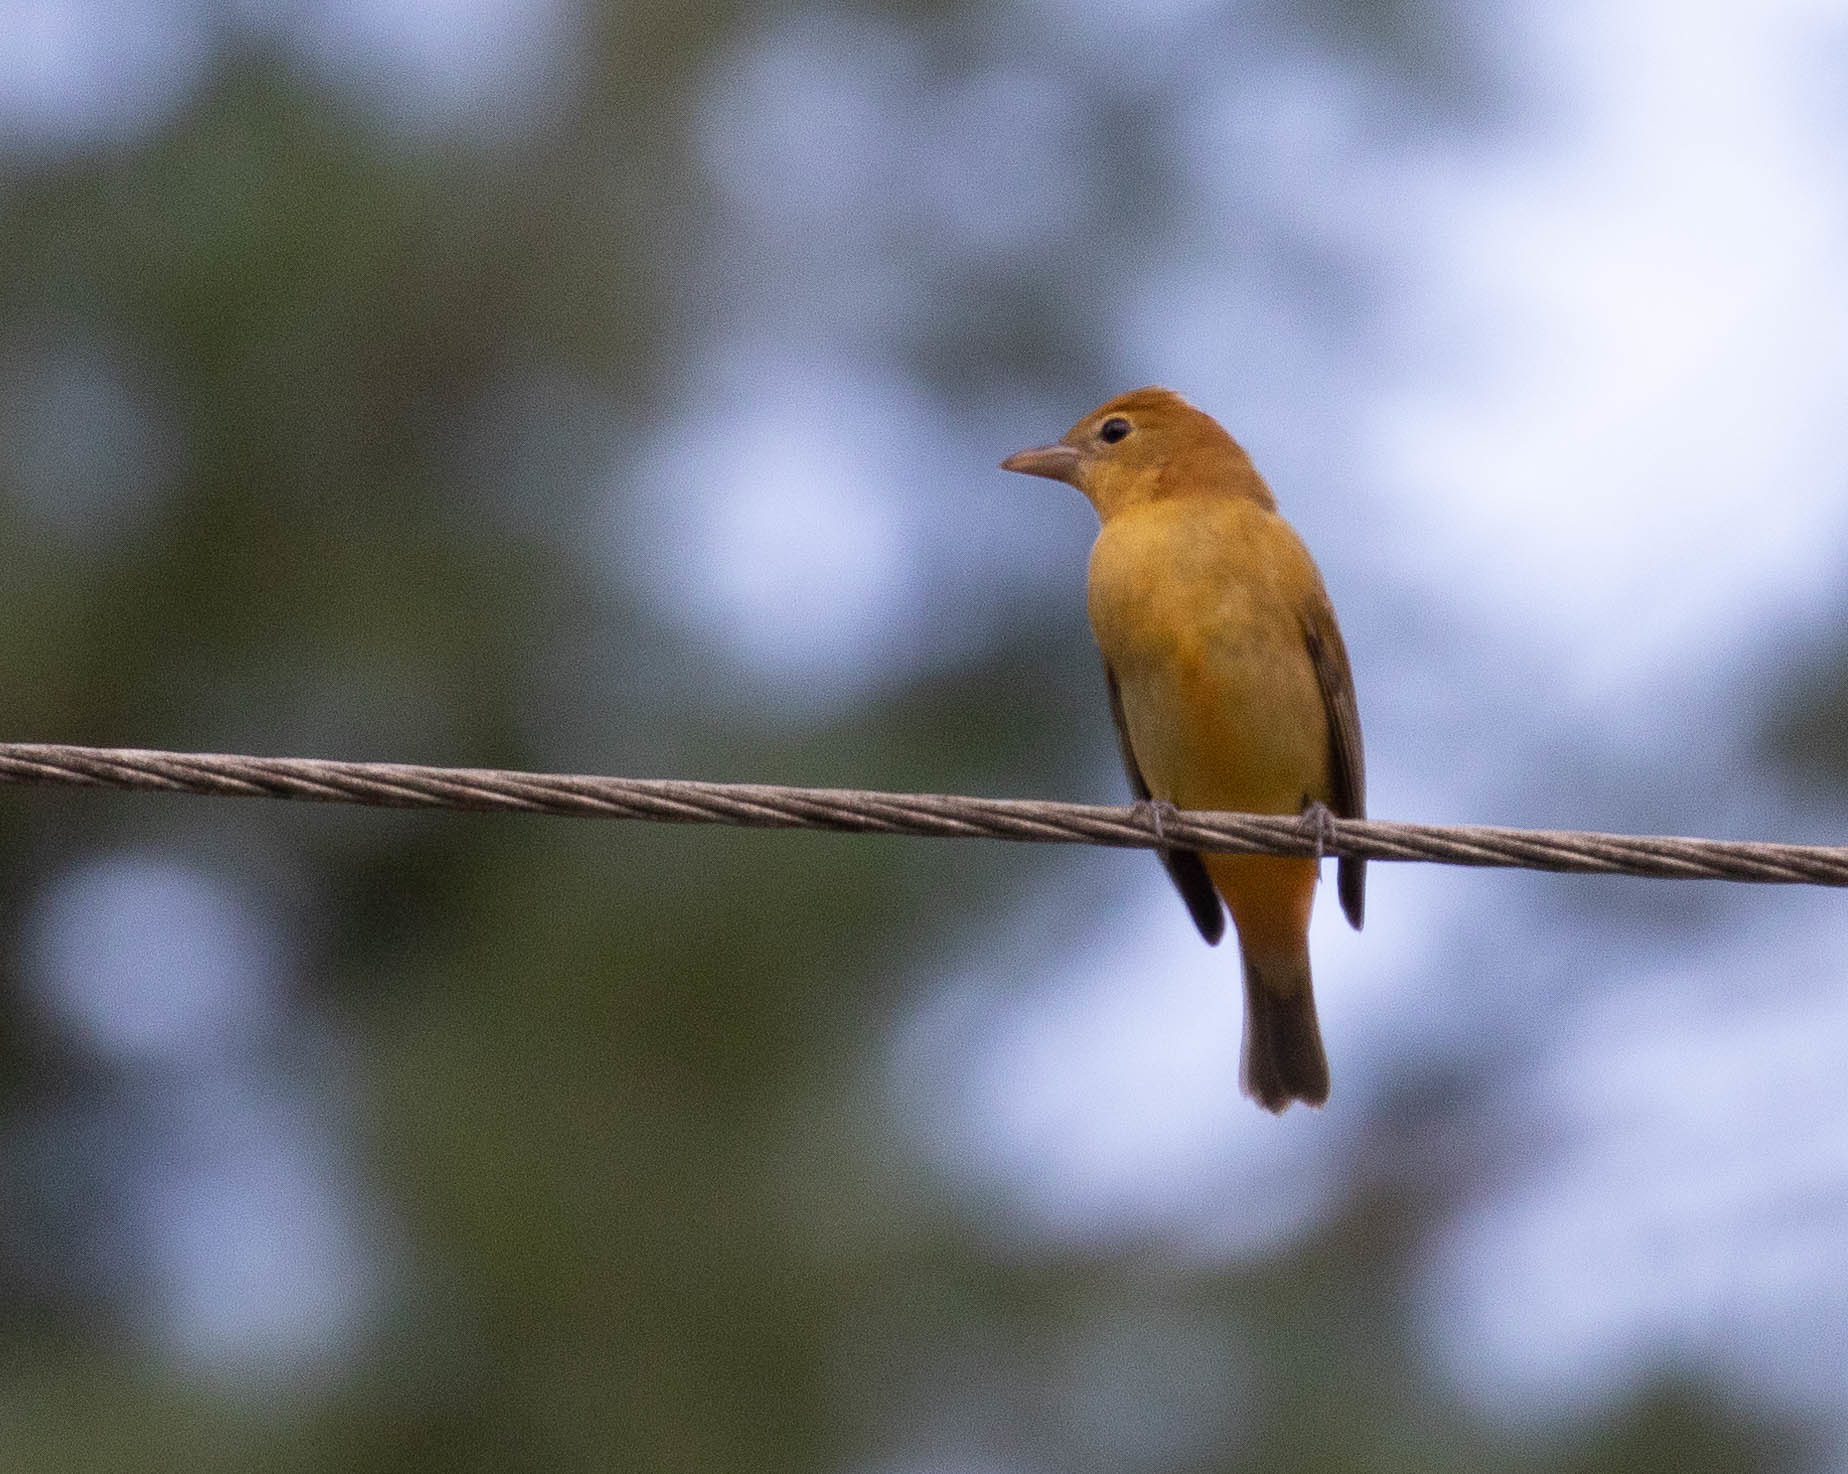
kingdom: Animalia
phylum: Chordata
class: Aves
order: Passeriformes
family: Cardinalidae
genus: Piranga
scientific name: Piranga rubra
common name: Summer tanager
